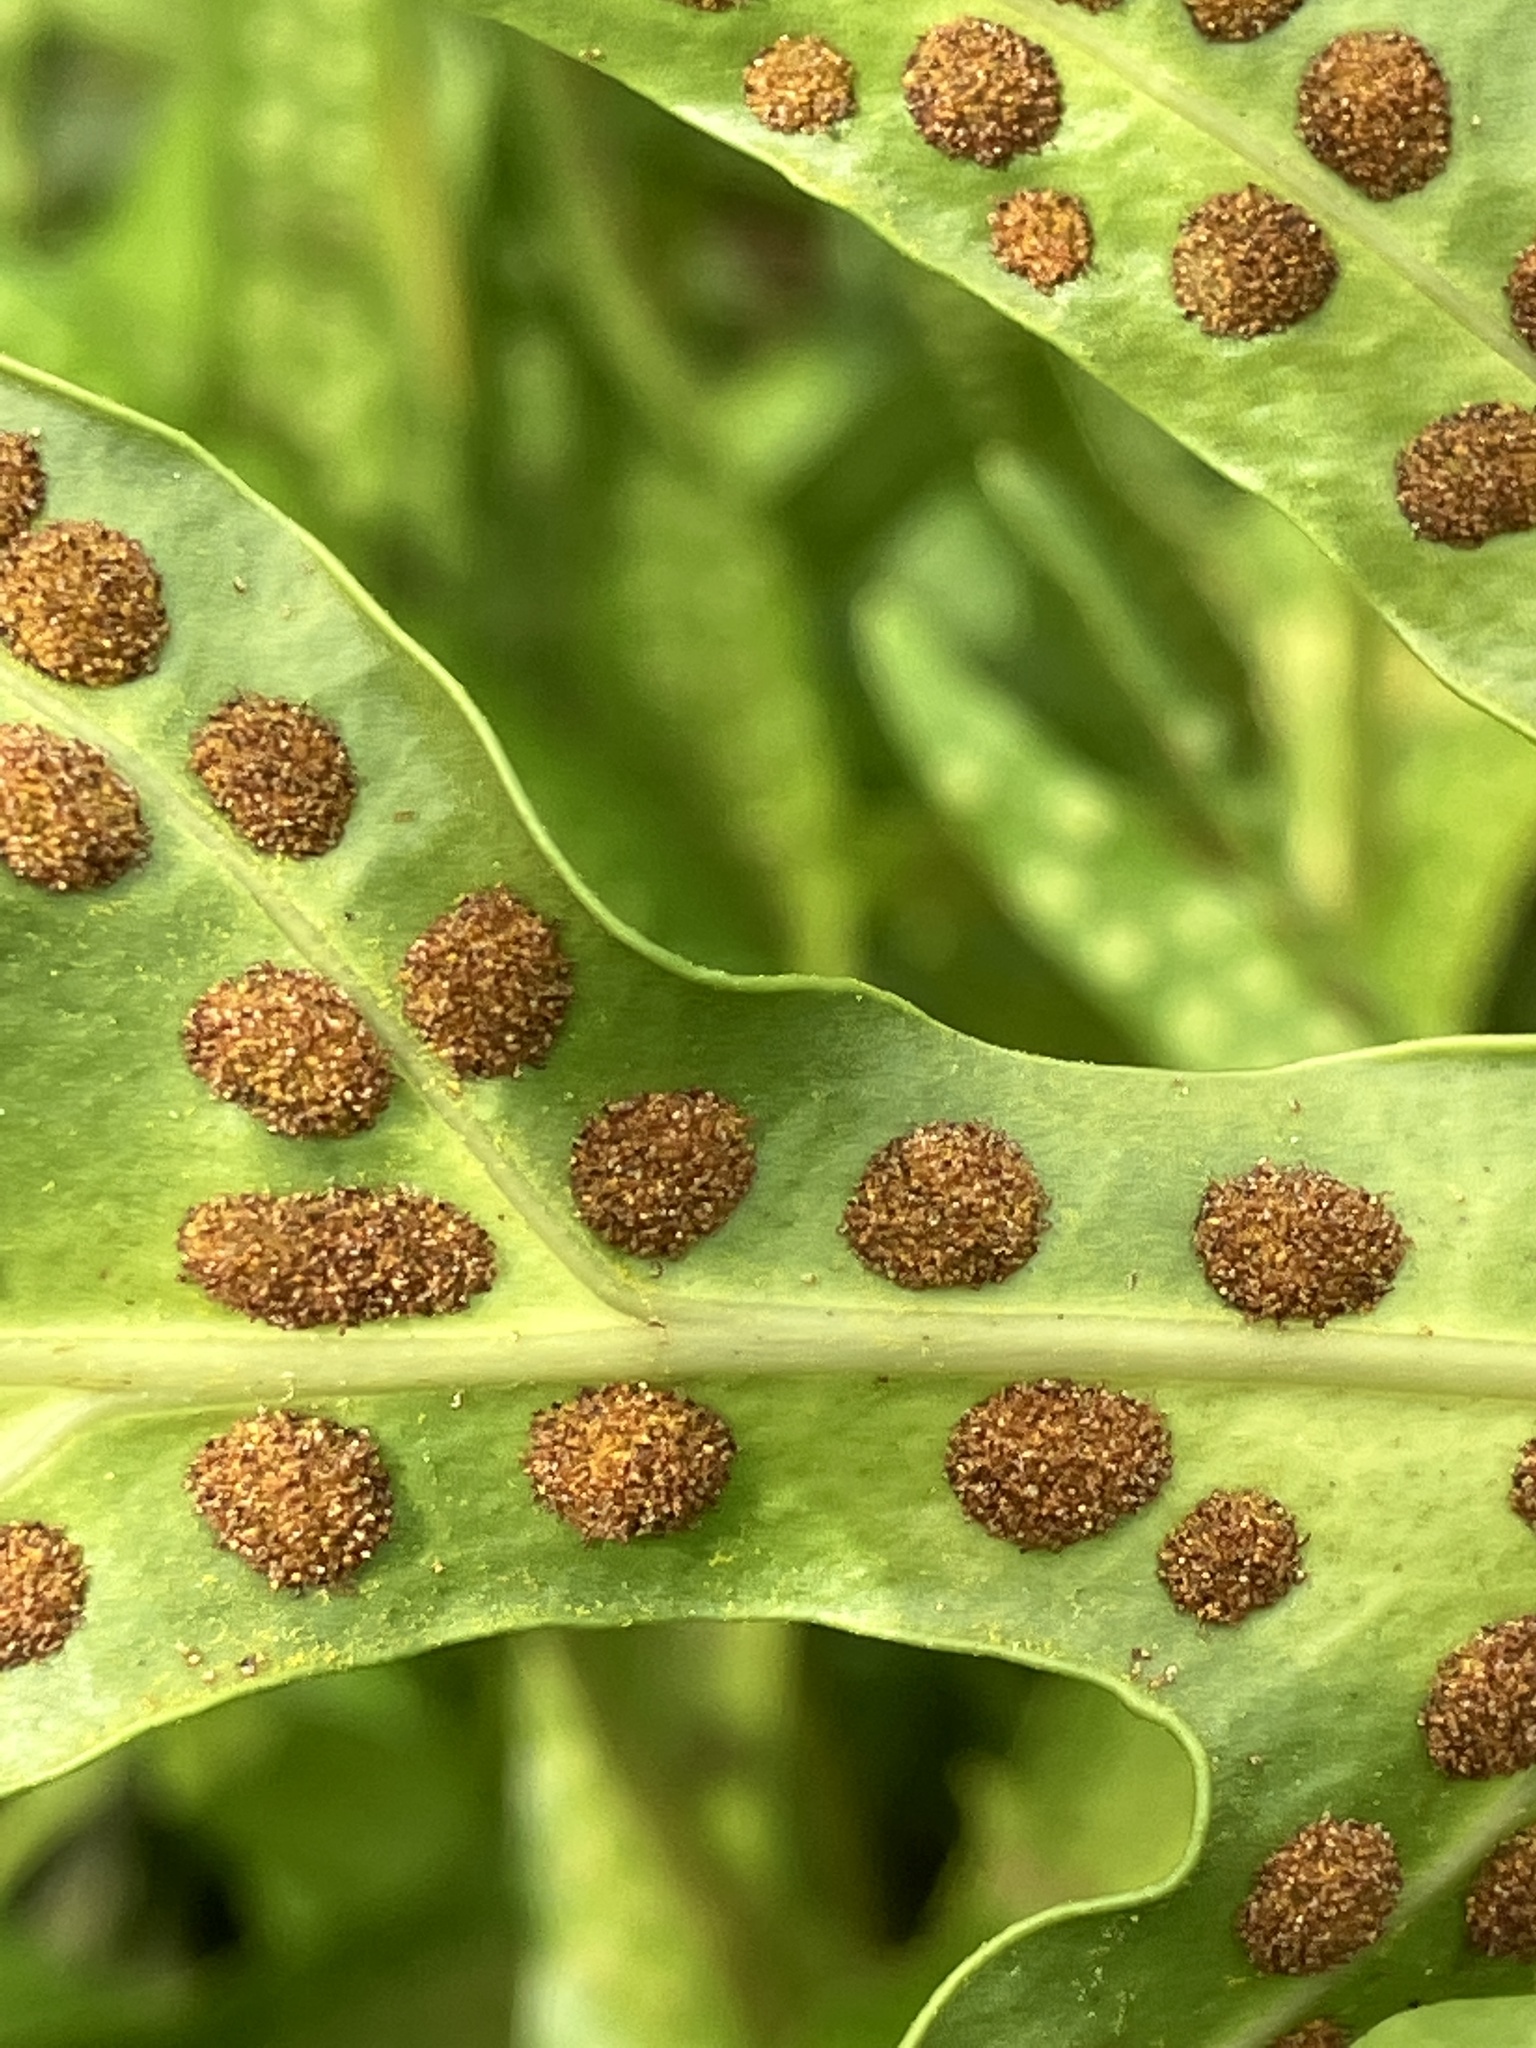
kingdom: Plantae
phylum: Tracheophyta
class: Polypodiopsida
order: Polypodiales
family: Polypodiaceae
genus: Microsorum
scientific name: Microsorum scolopendria
